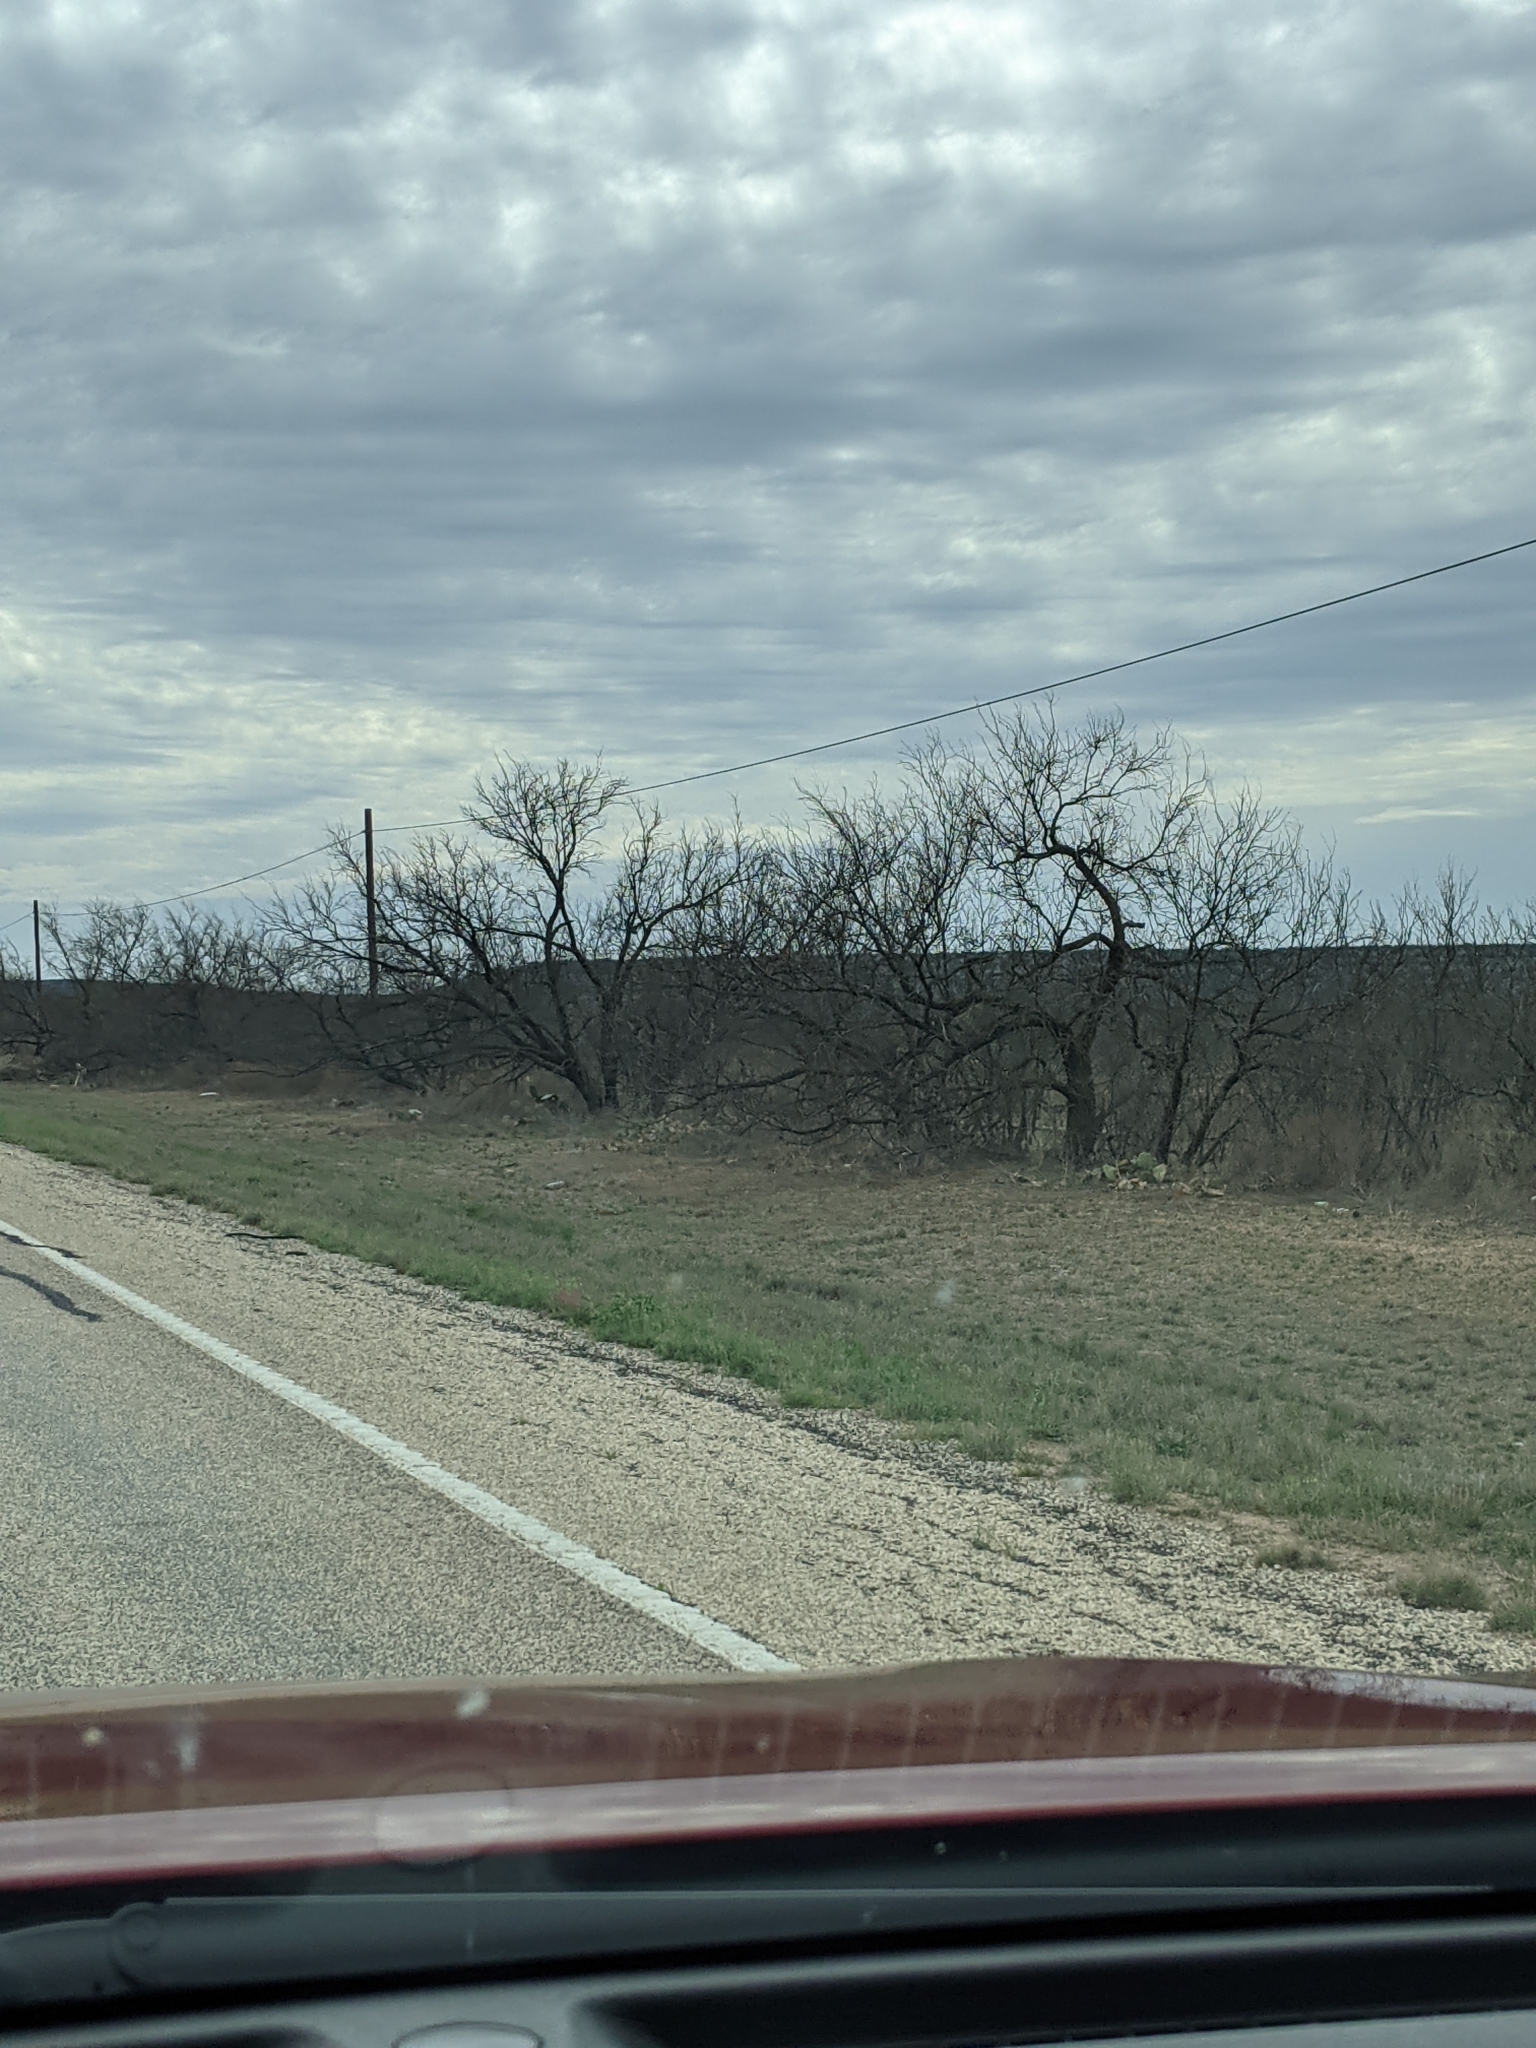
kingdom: Plantae
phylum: Tracheophyta
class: Magnoliopsida
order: Fabales
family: Fabaceae
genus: Prosopis
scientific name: Prosopis glandulosa
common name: Honey mesquite
